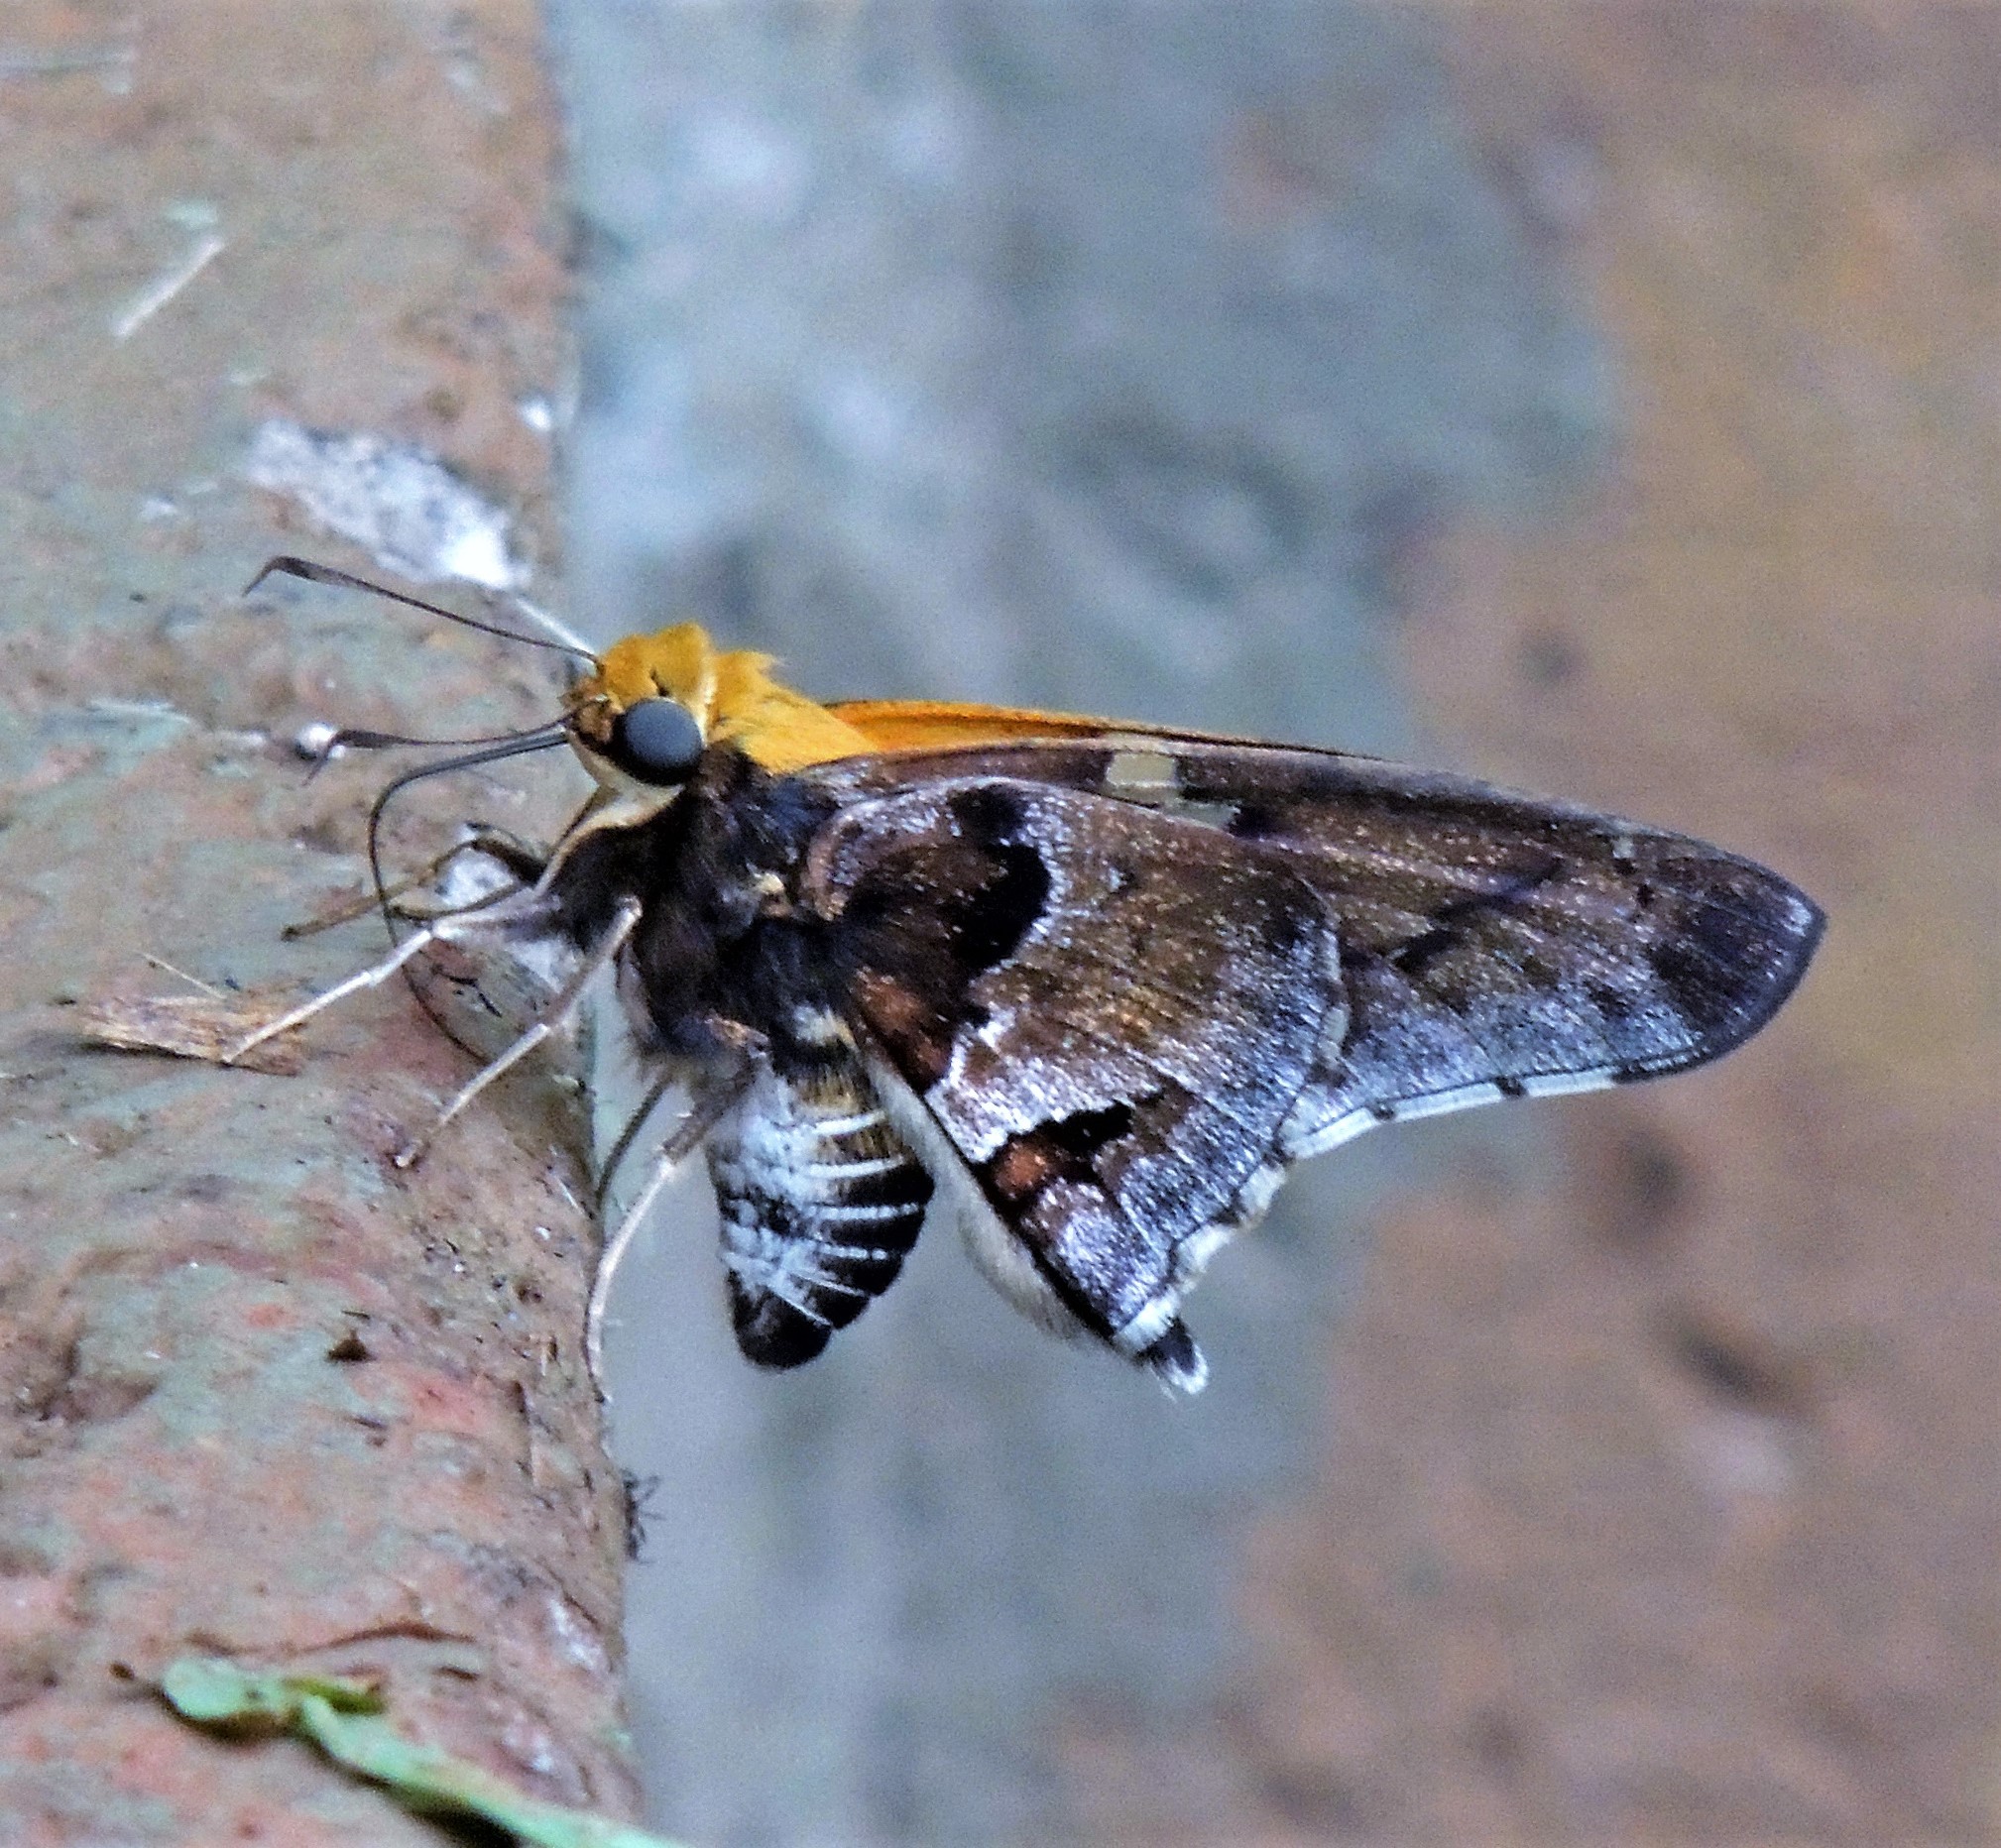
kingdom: Animalia
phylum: Arthropoda
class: Insecta
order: Lepidoptera
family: Hesperiidae
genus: Proteides
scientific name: Proteides mercurius
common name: Mercurial skipper
